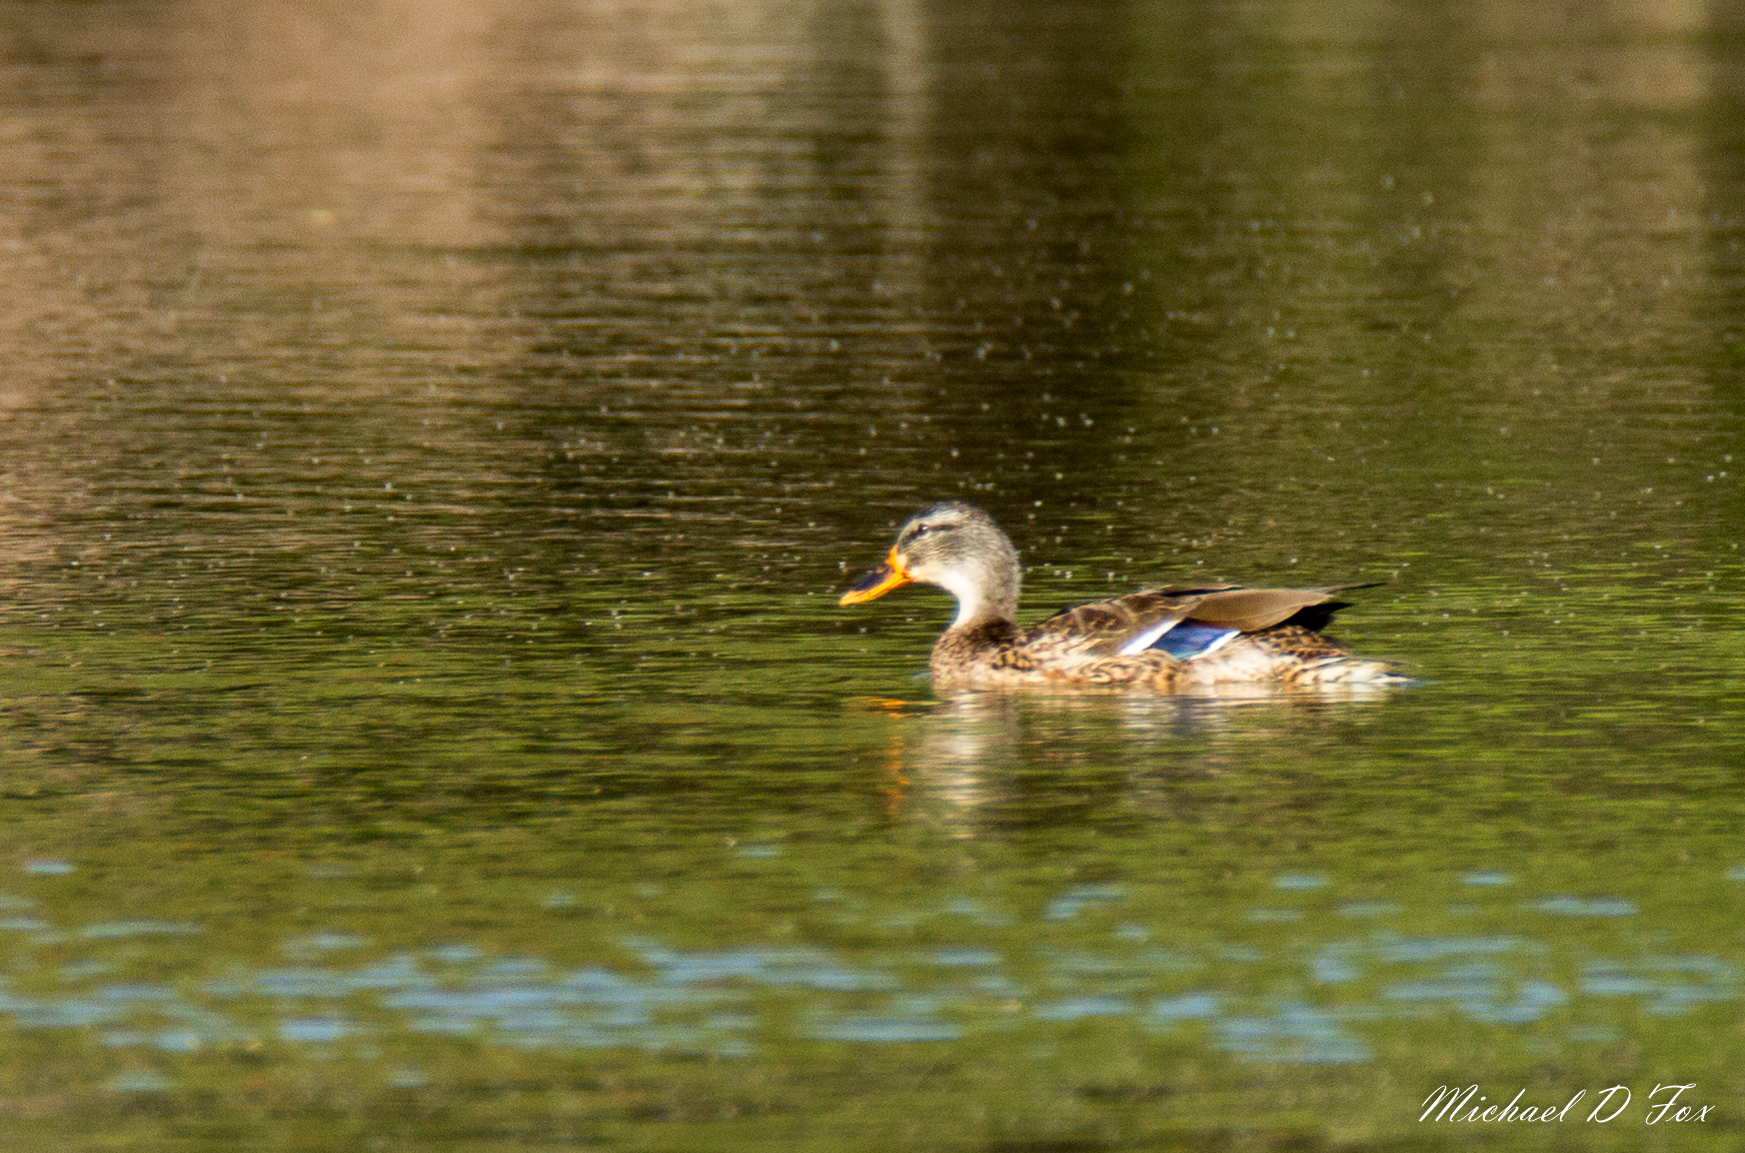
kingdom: Animalia
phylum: Chordata
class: Aves
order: Anseriformes
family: Anatidae
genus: Anas
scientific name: Anas platyrhynchos
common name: Mallard
